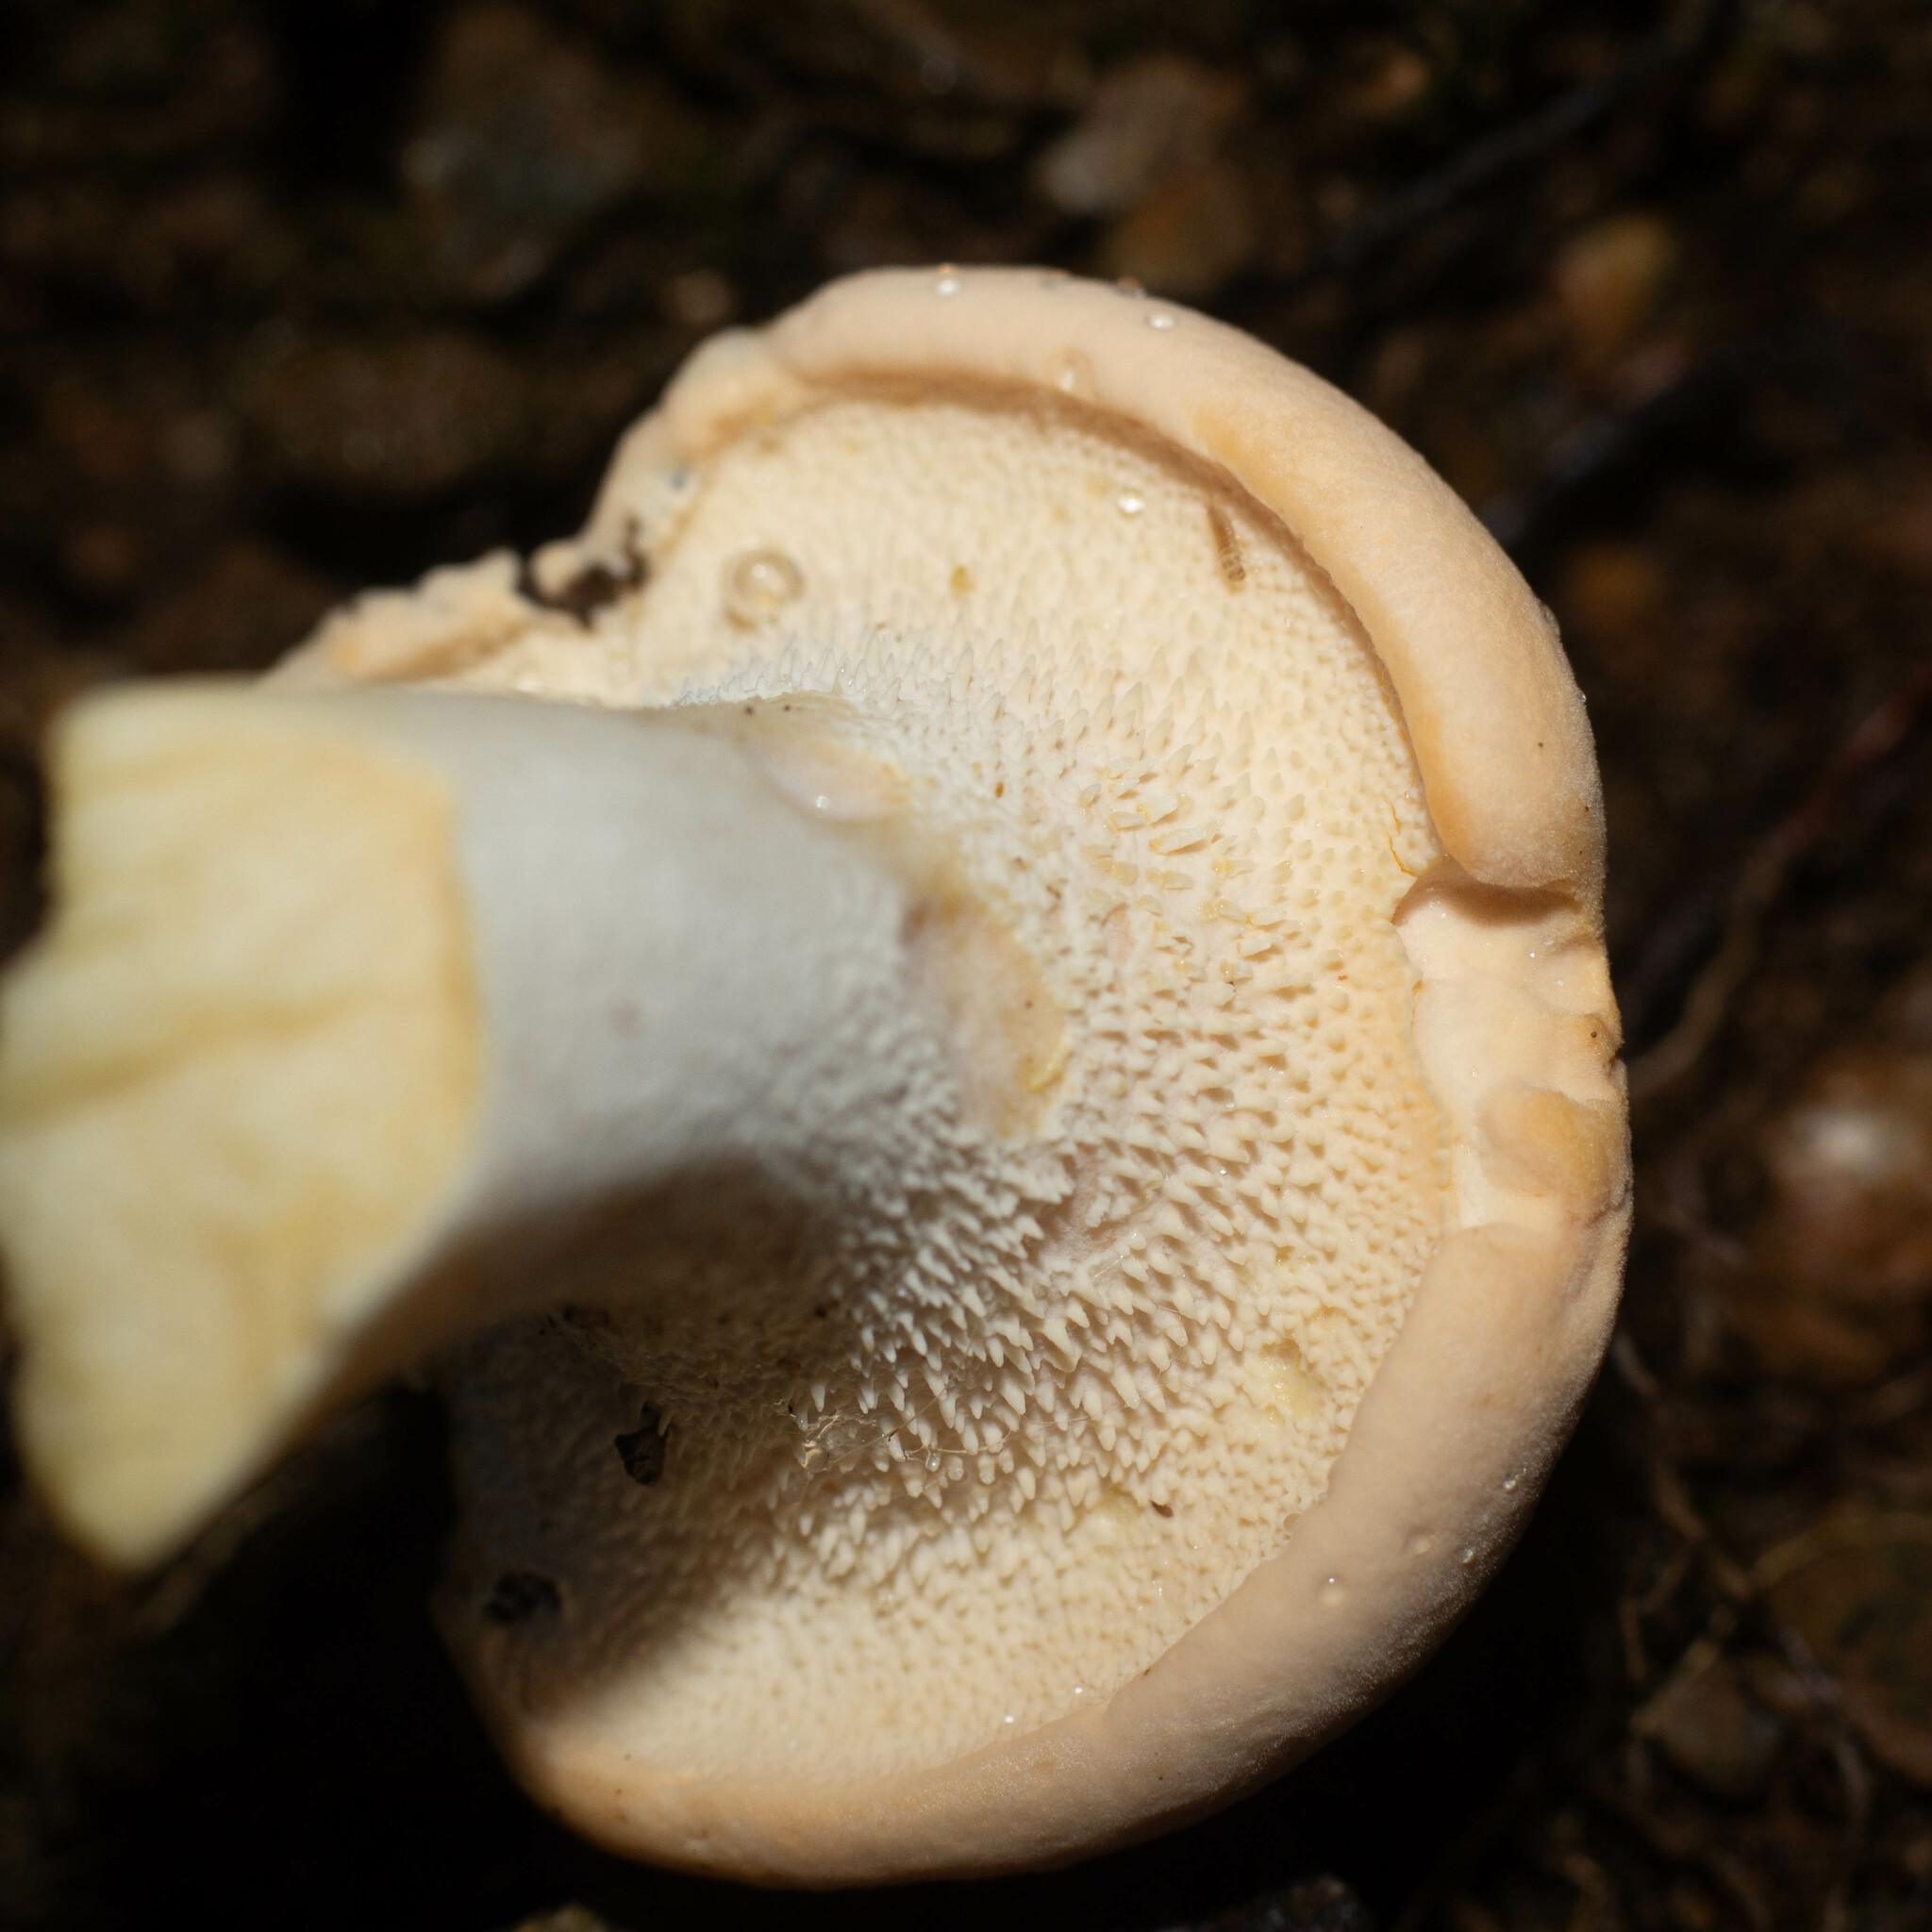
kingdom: Fungi
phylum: Basidiomycota
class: Agaricomycetes
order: Cantharellales
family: Hydnaceae
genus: Hydnum
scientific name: Hydnum repandum
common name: Wood hedgehog
